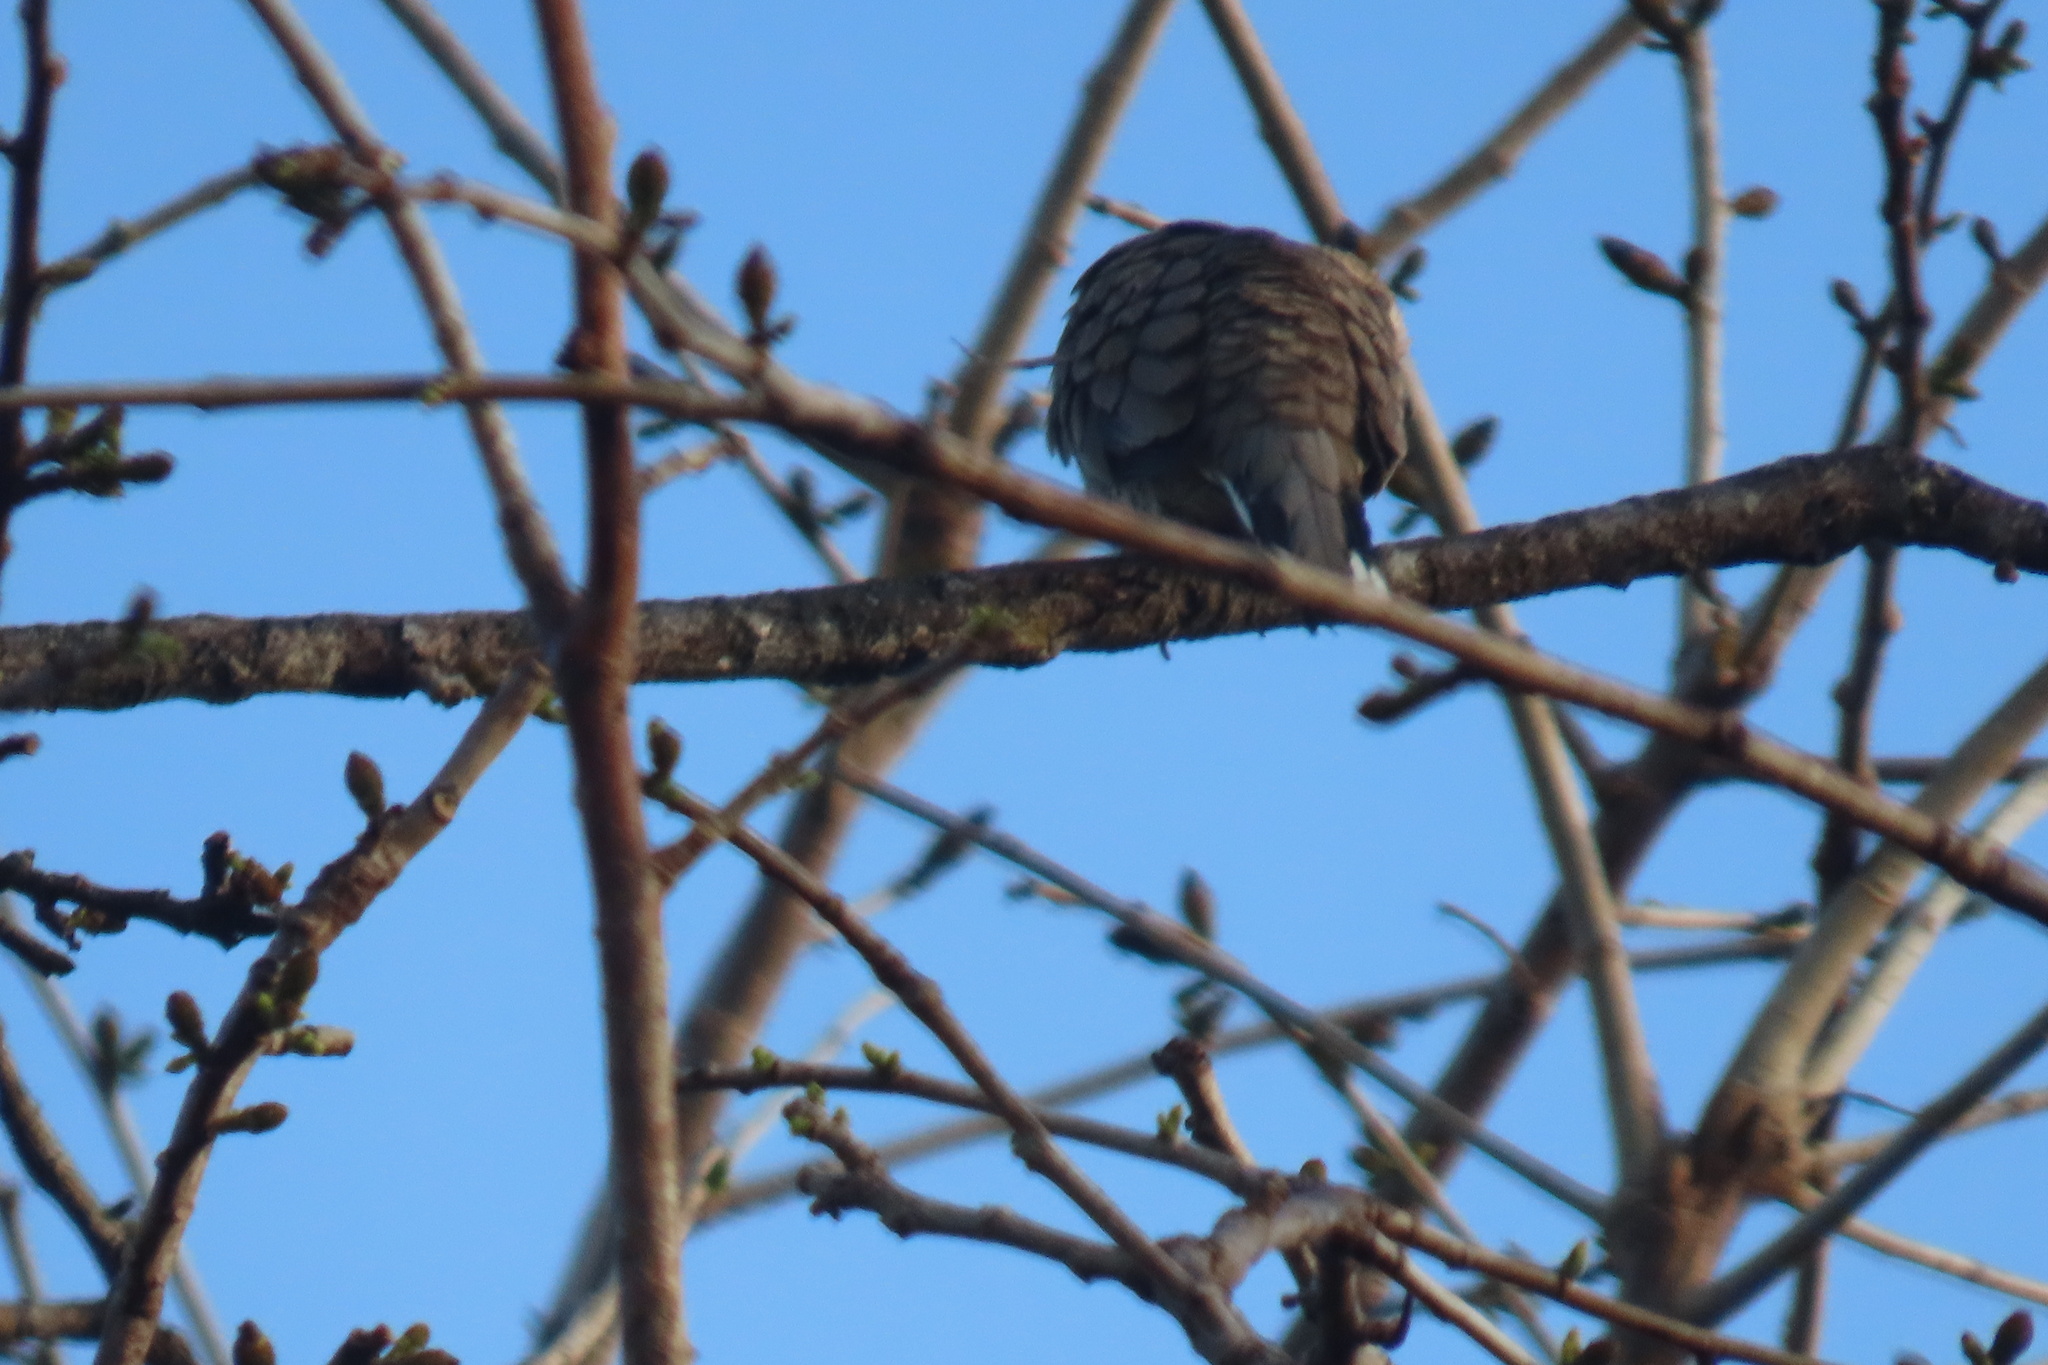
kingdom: Animalia
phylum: Chordata
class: Aves
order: Columbiformes
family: Columbidae
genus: Columbina
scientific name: Columbina inca
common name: Inca dove
